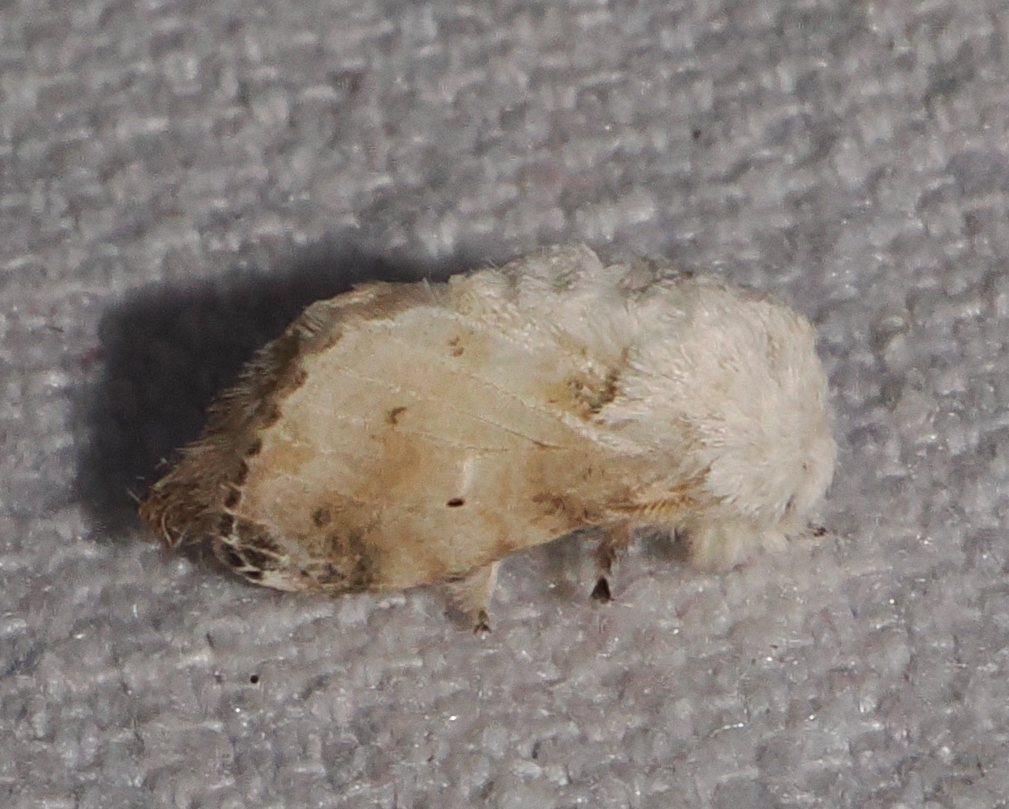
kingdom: Animalia
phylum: Arthropoda
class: Insecta
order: Lepidoptera
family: Lasiocampidae
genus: Tolype
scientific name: Tolype effesa
